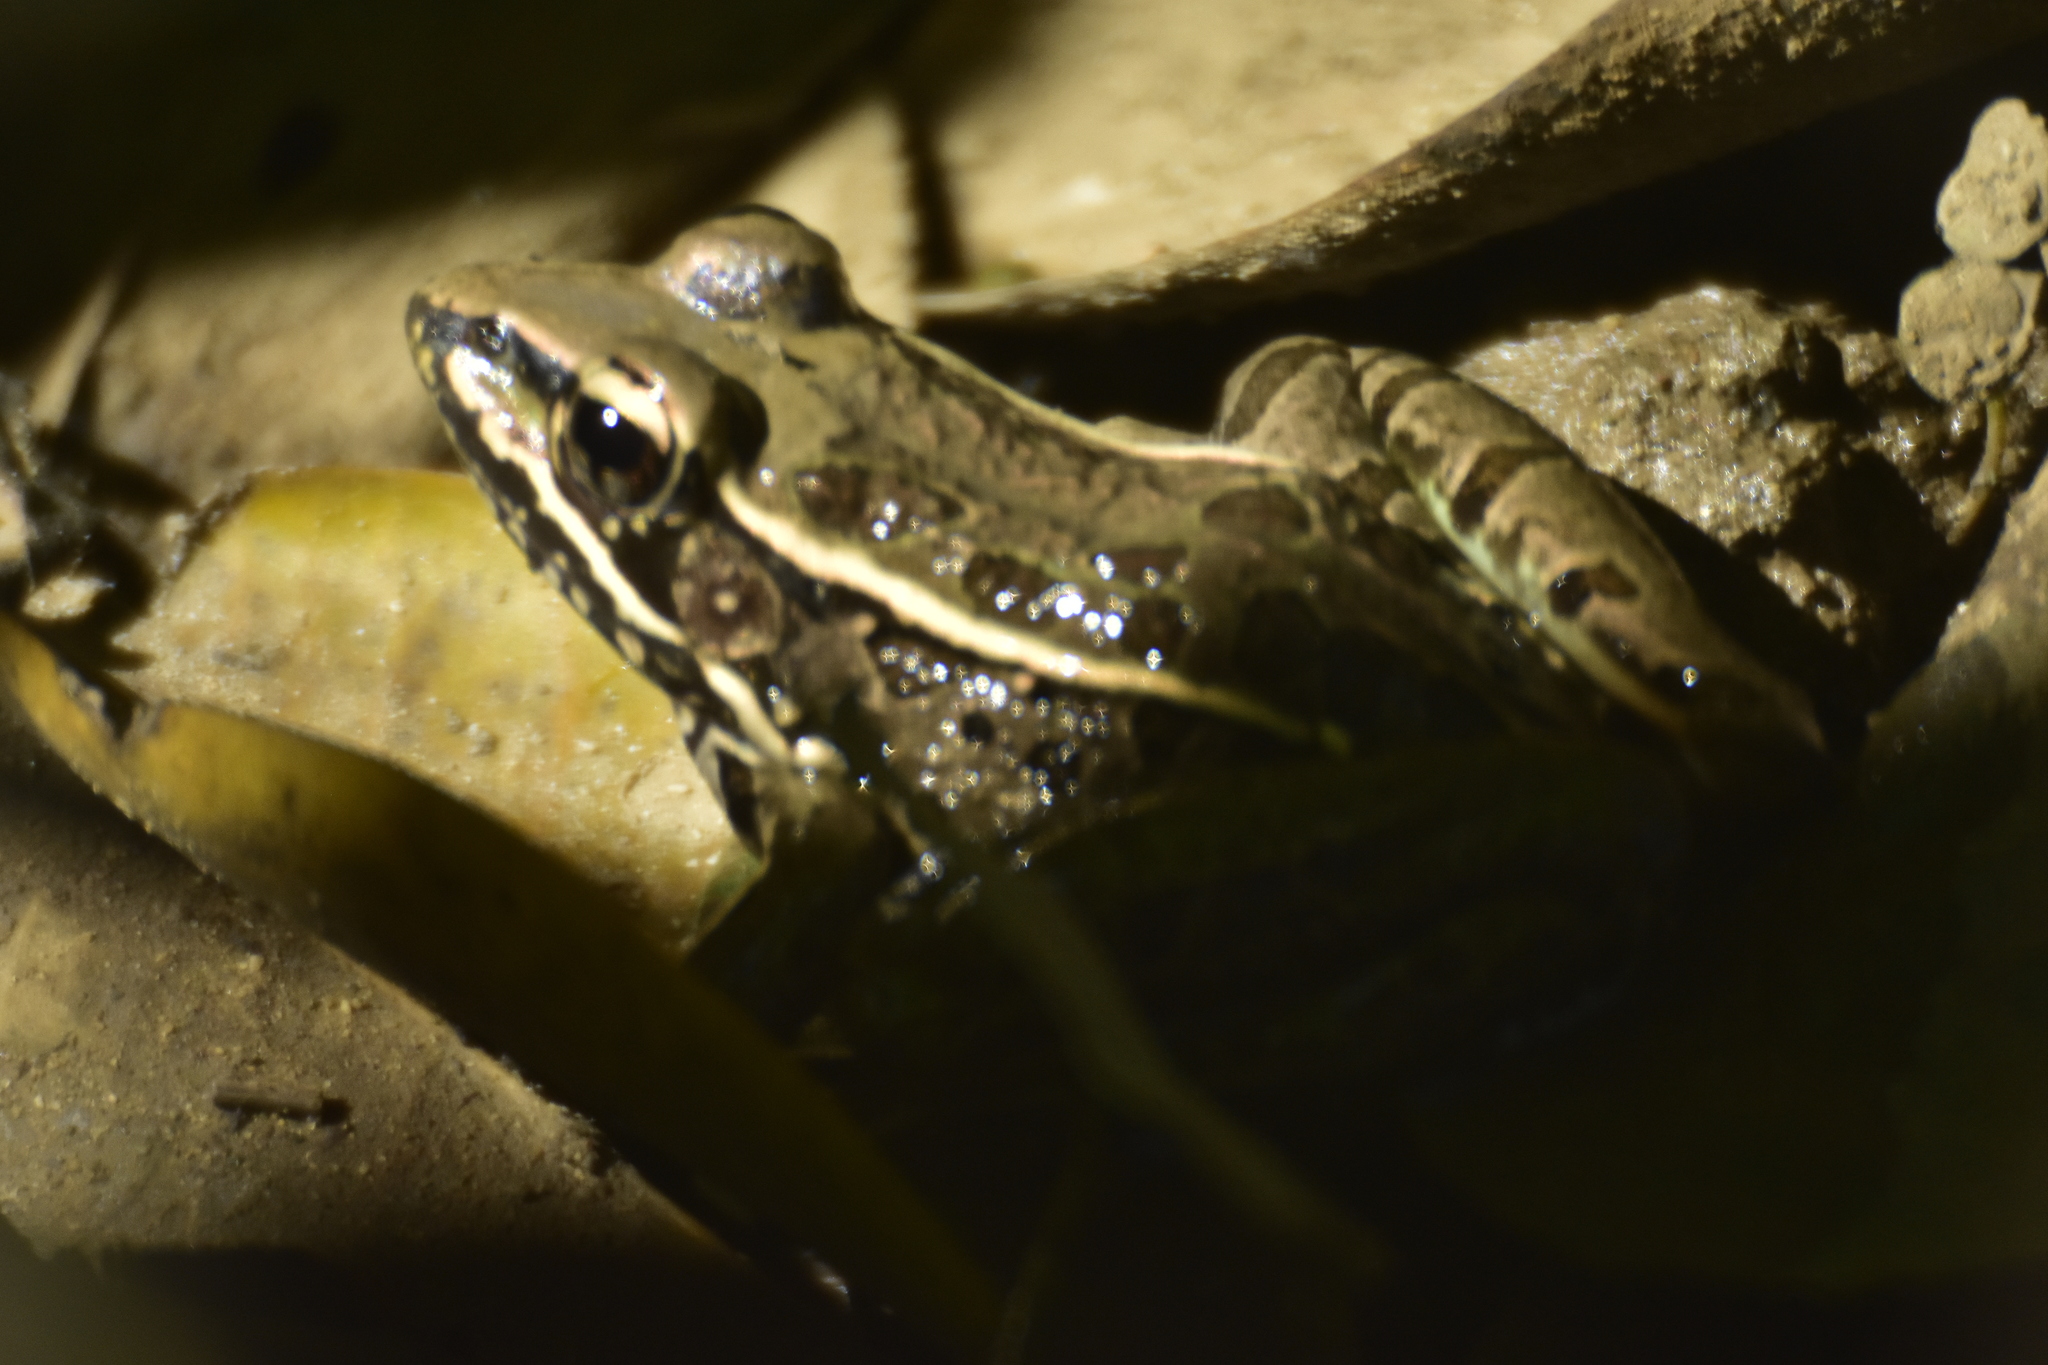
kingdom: Animalia
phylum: Chordata
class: Amphibia
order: Anura
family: Ranidae
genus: Lithobates
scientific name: Lithobates forreri
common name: Forrer's grass frog
